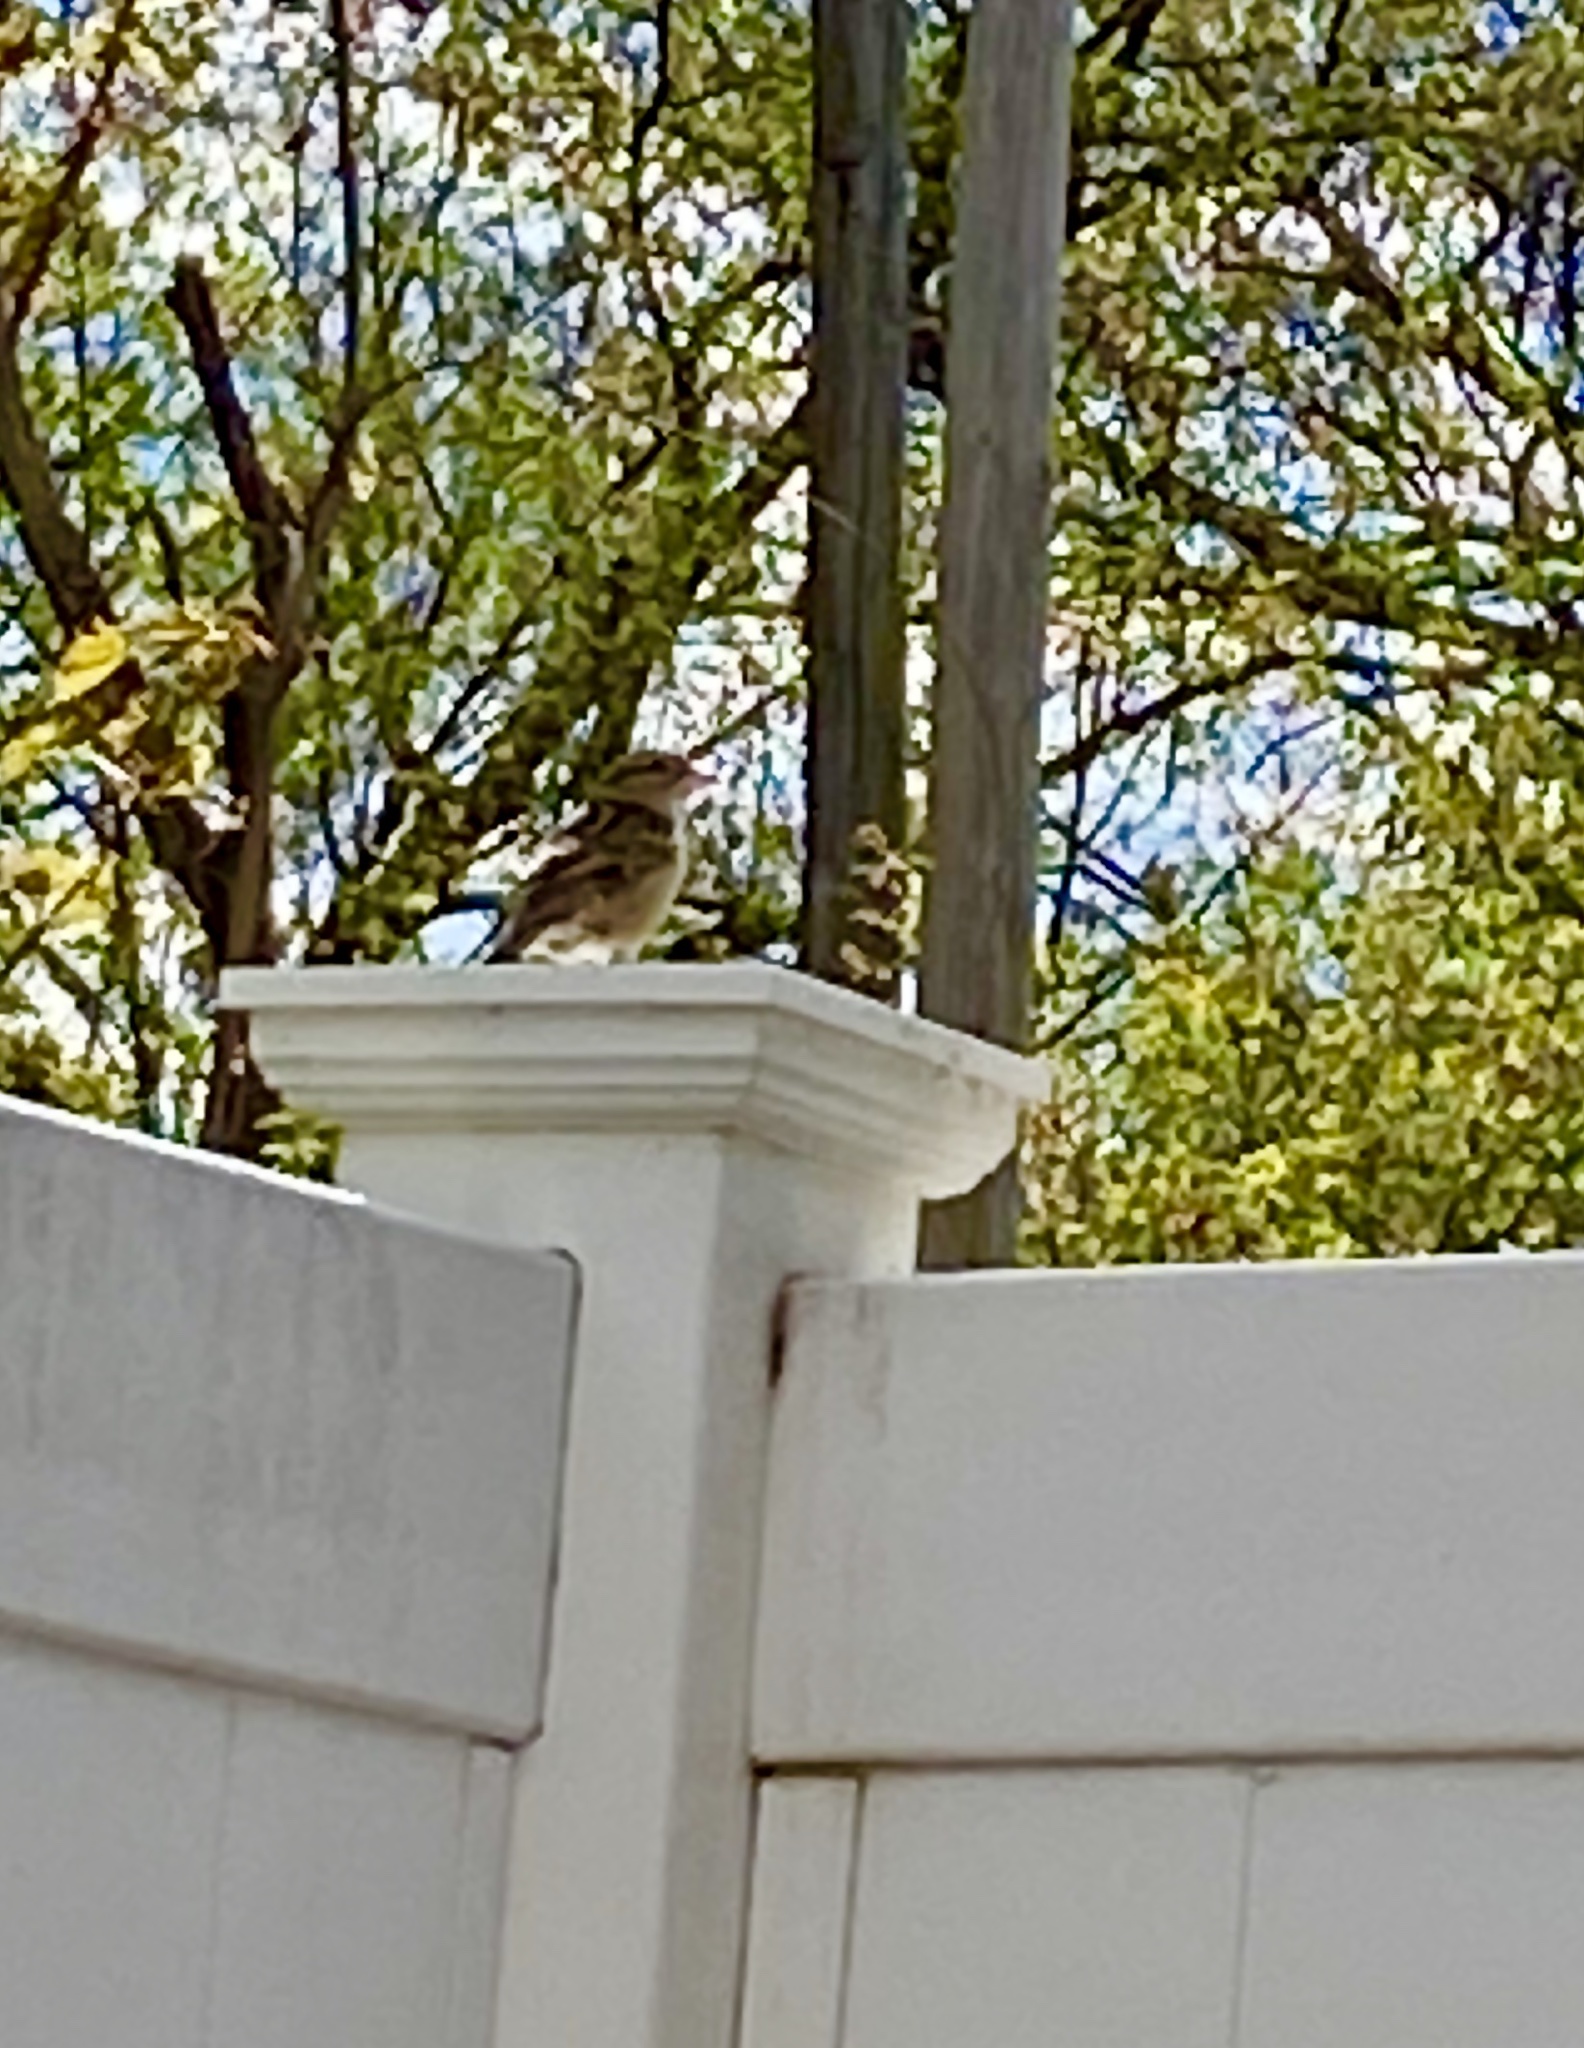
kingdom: Animalia
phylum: Chordata
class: Aves
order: Passeriformes
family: Passeridae
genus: Passer
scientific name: Passer domesticus
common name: House sparrow
